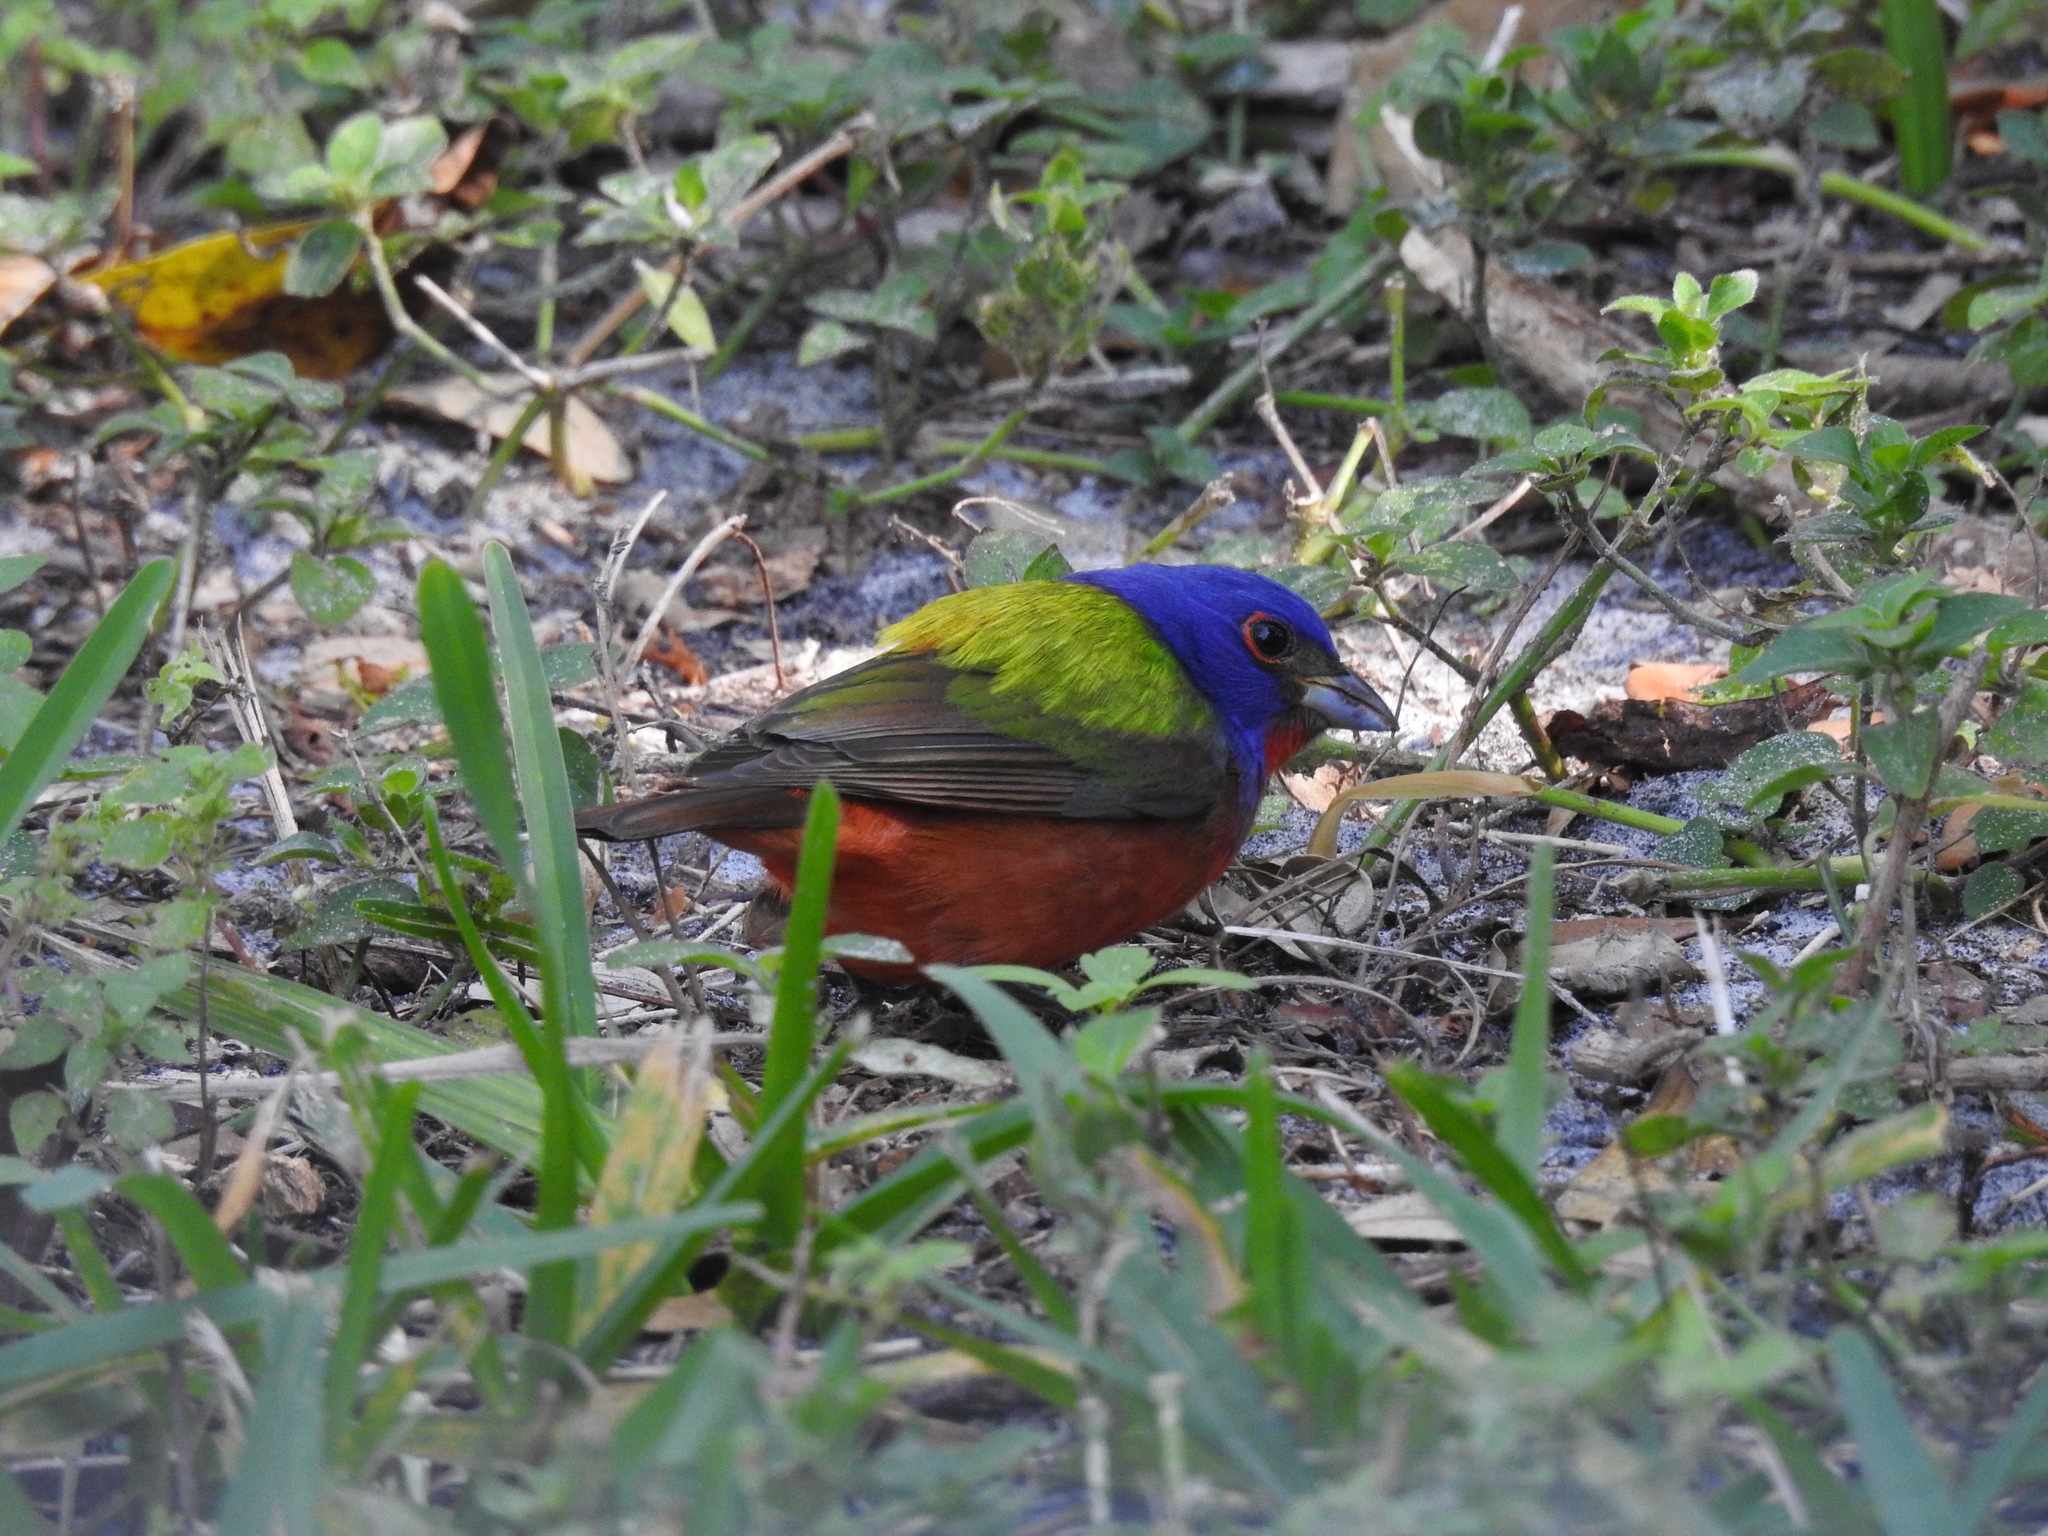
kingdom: Animalia
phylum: Chordata
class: Aves
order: Passeriformes
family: Cardinalidae
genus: Passerina
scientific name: Passerina ciris
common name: Painted bunting
